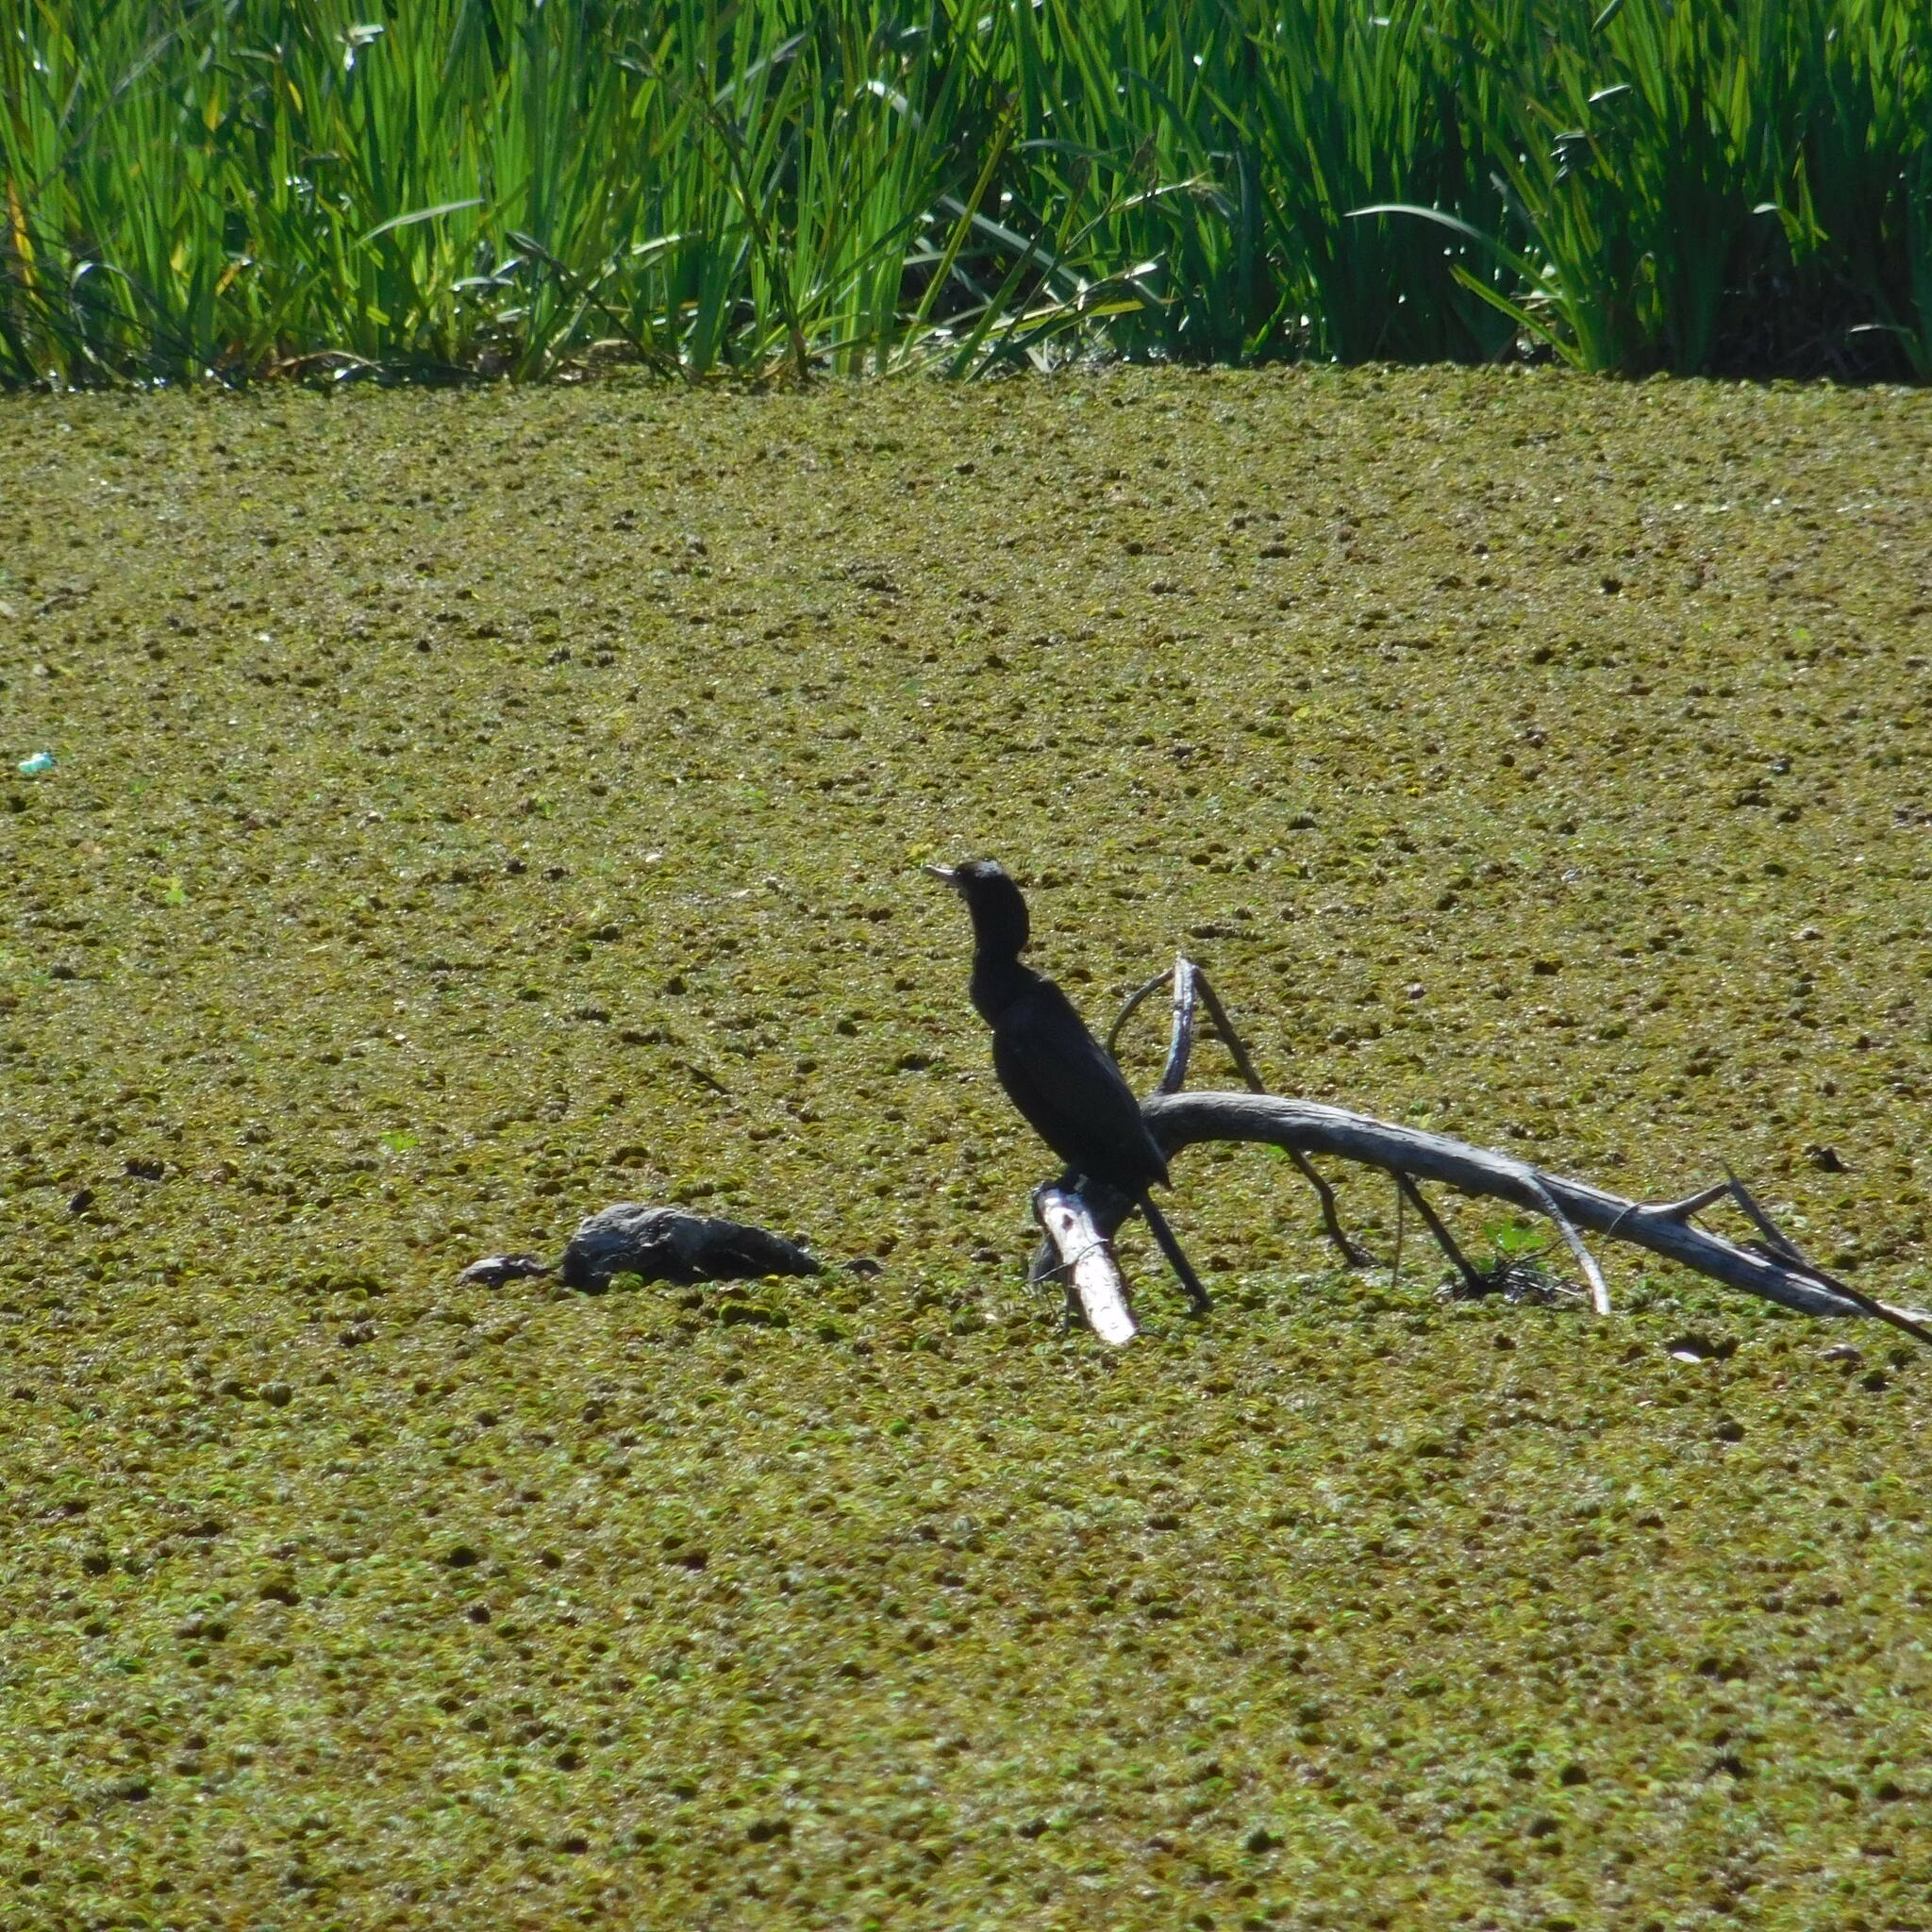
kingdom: Animalia
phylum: Chordata
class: Aves
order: Suliformes
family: Phalacrocoracidae
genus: Phalacrocorax
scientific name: Phalacrocorax brasilianus
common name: Neotropic cormorant
